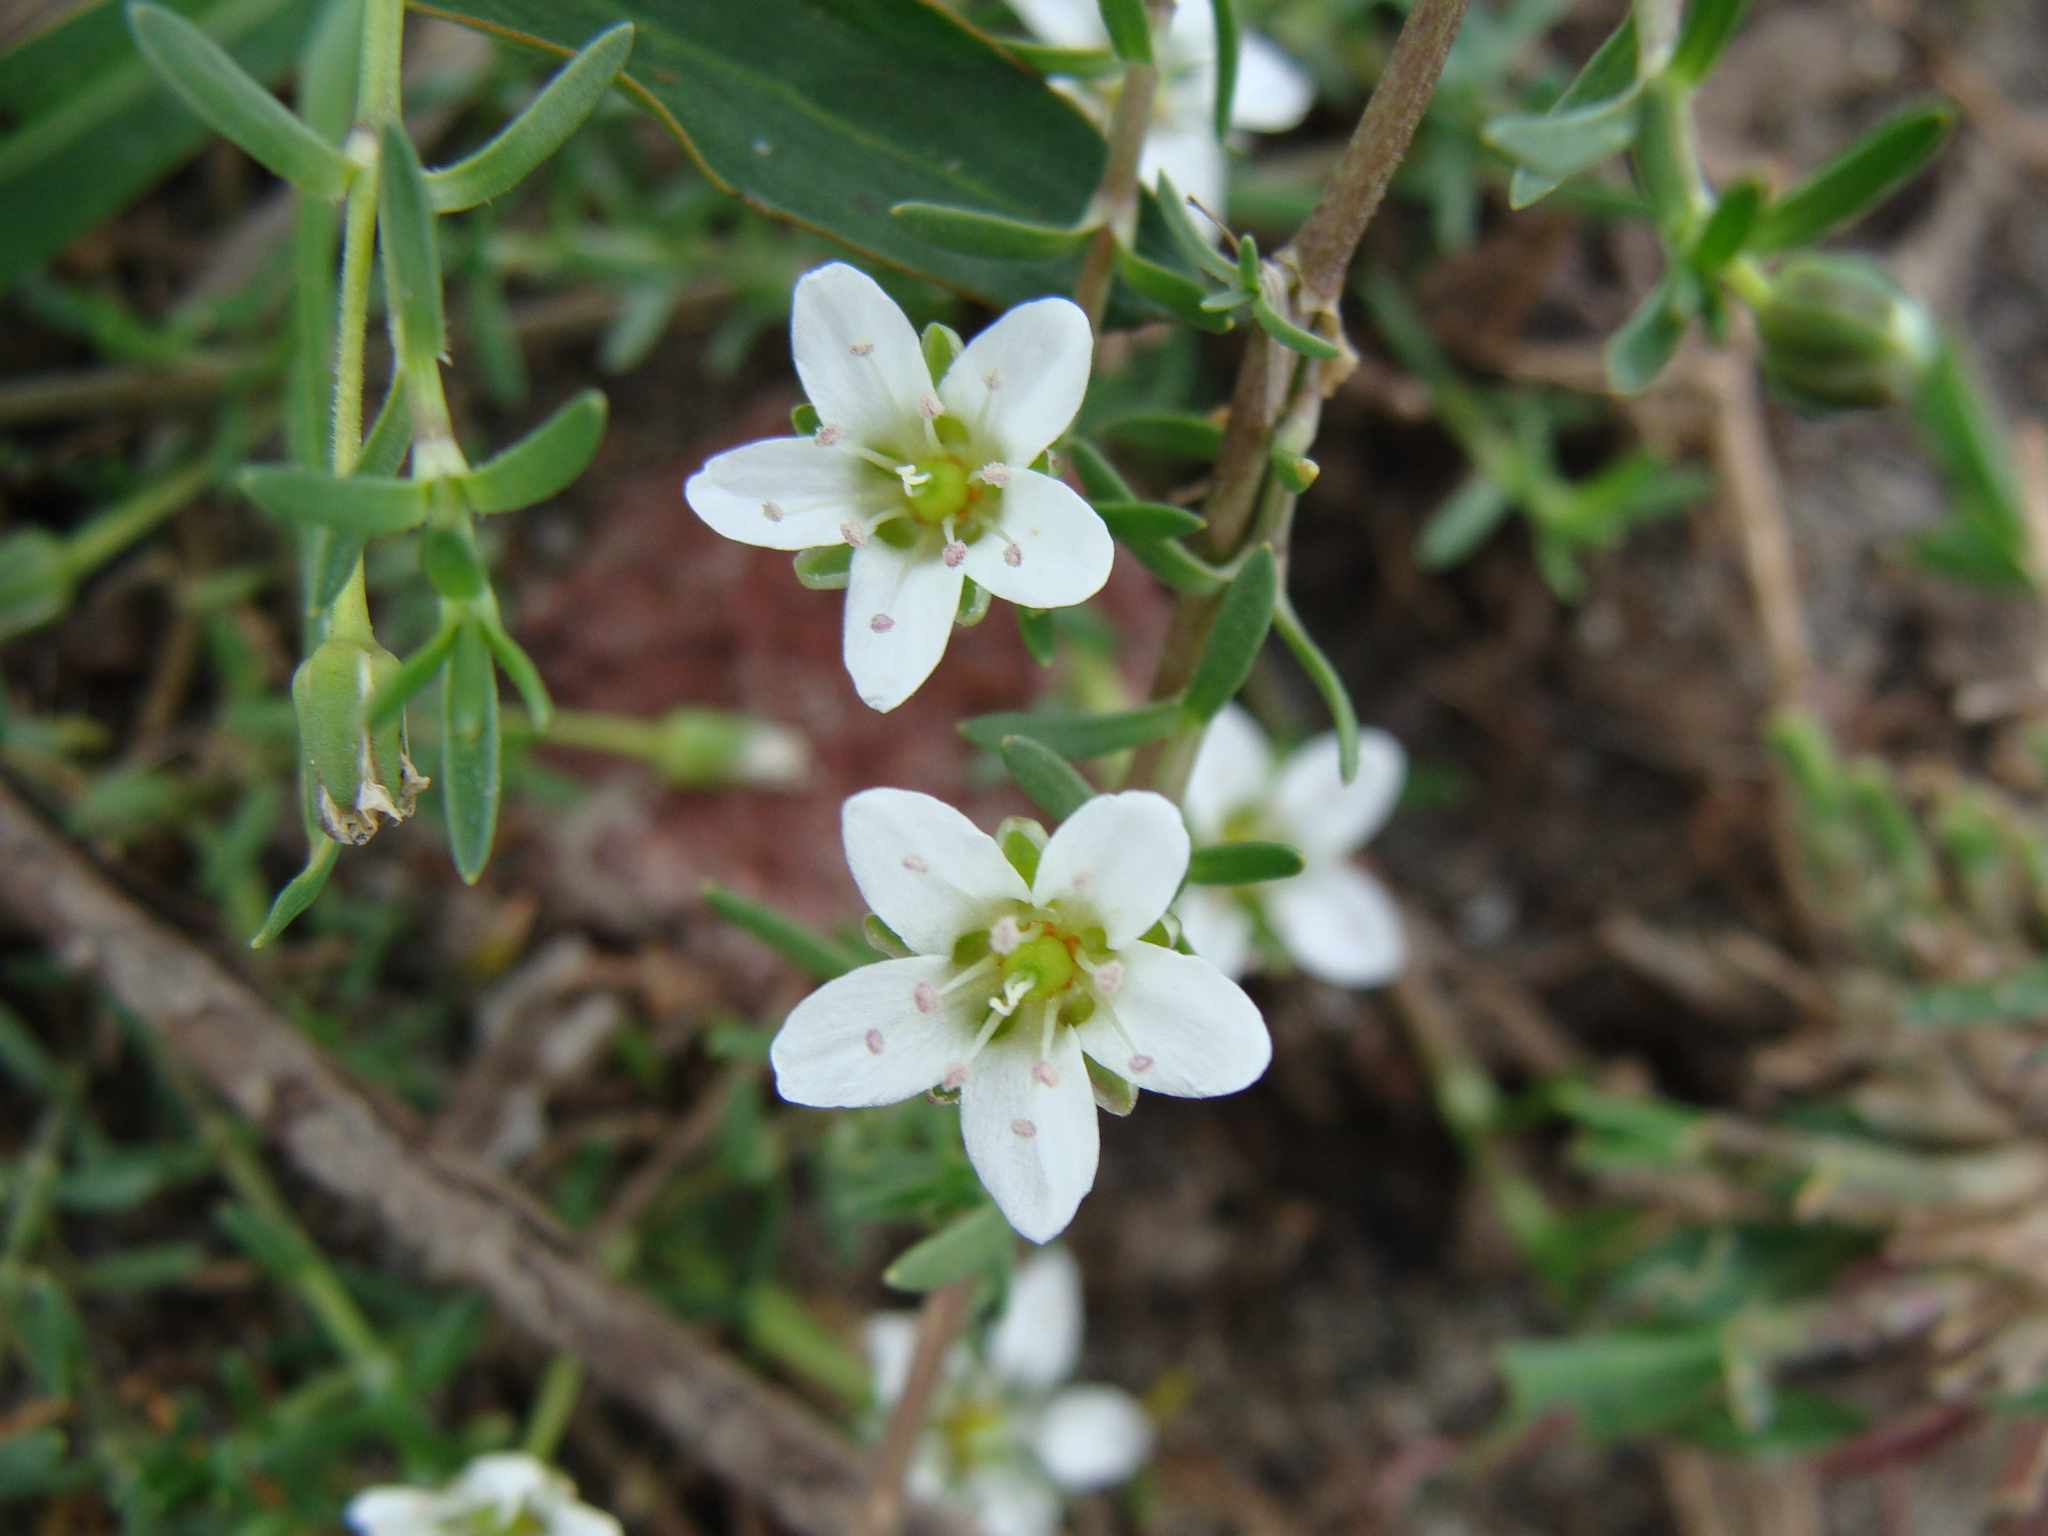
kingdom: Plantae
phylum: Tracheophyta
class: Magnoliopsida
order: Caryophyllales
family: Caryophyllaceae
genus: Arenaria
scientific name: Arenaria bourgaei
